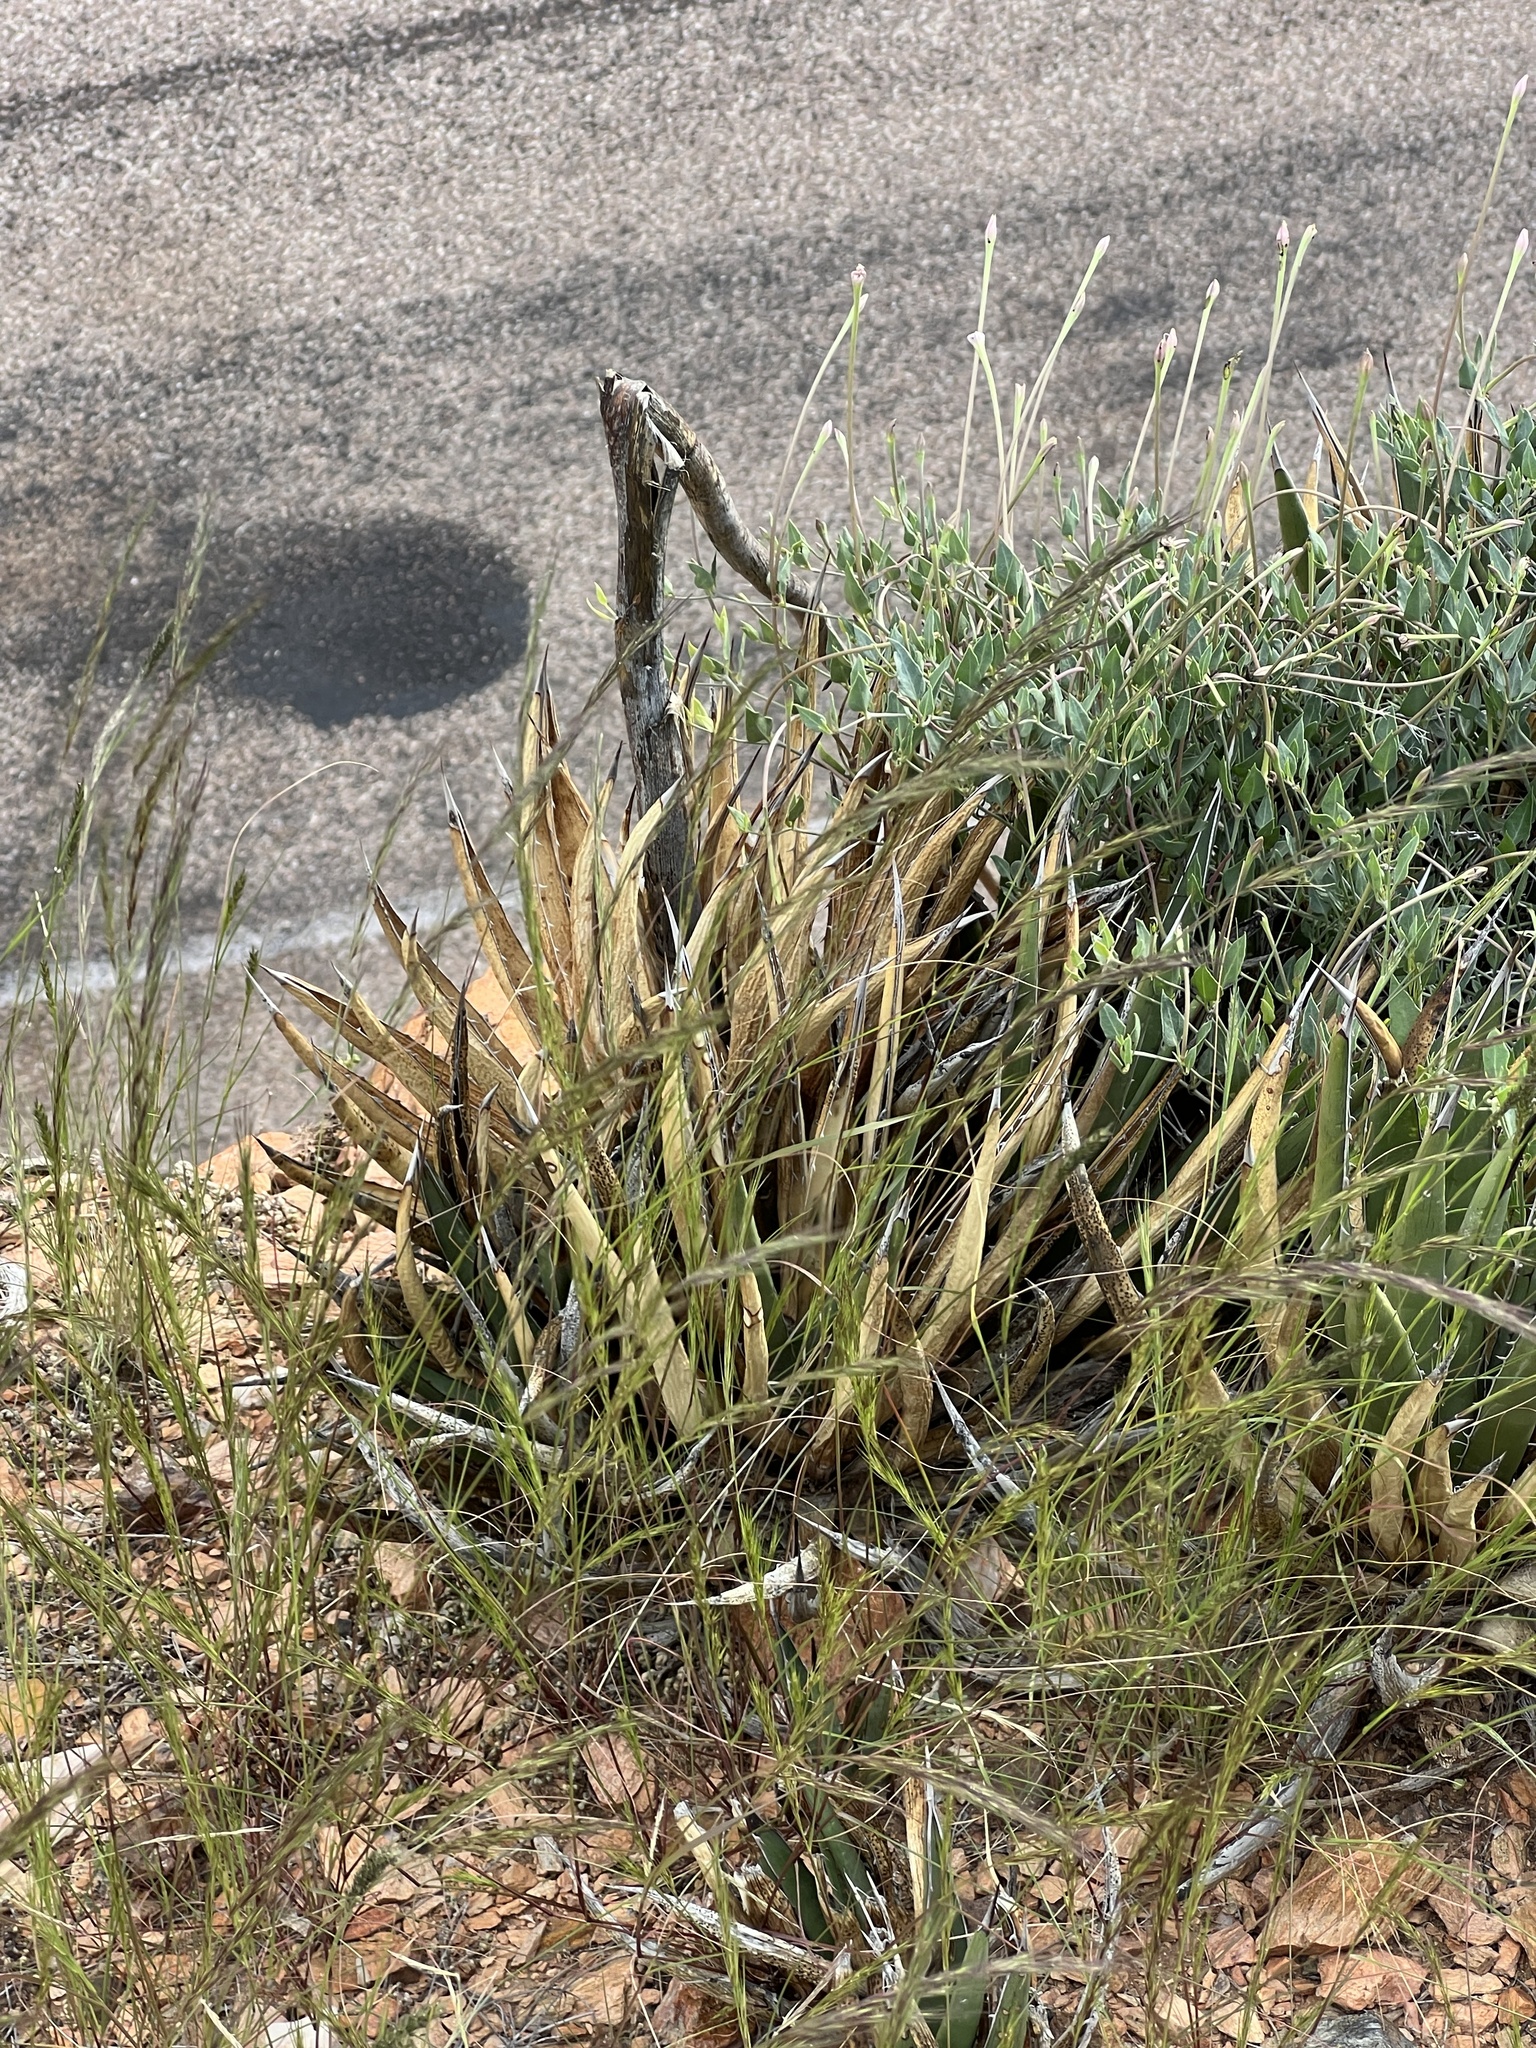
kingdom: Plantae
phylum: Tracheophyta
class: Liliopsida
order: Asparagales
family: Asparagaceae
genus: Agave
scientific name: Agave lechuguilla
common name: Lecheguilla agave
